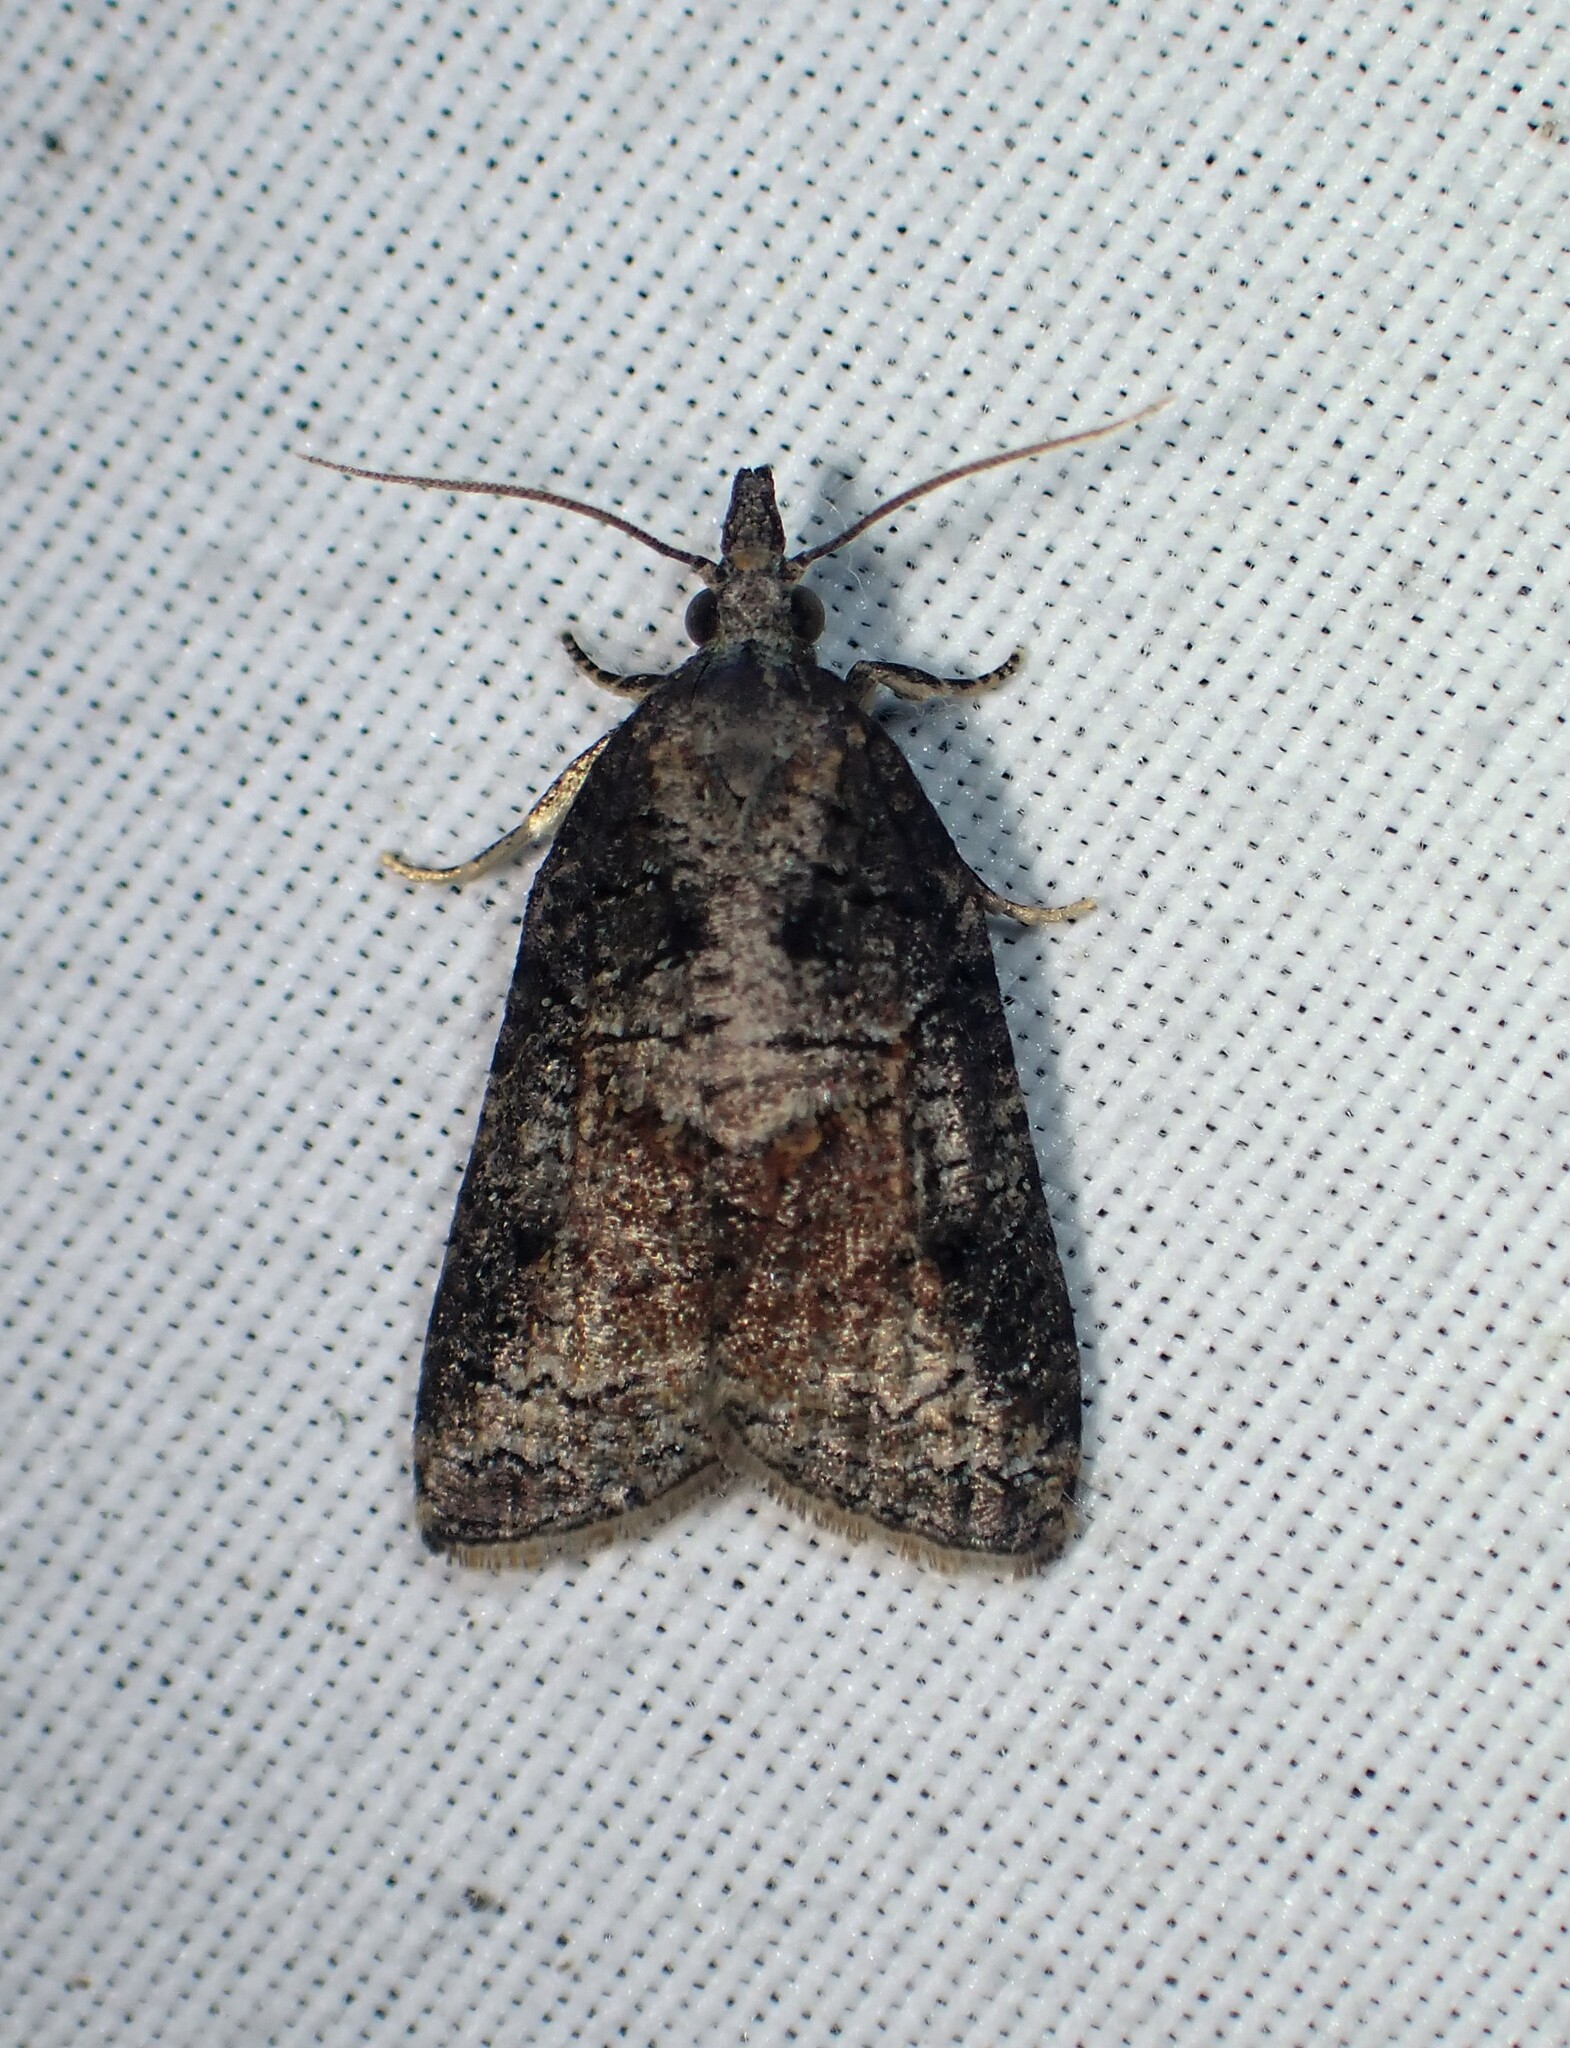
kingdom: Animalia
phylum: Arthropoda
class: Insecta
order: Lepidoptera
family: Tortricidae
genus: Platynota
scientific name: Platynota idaeusalis
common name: Tufted apple bud moth
